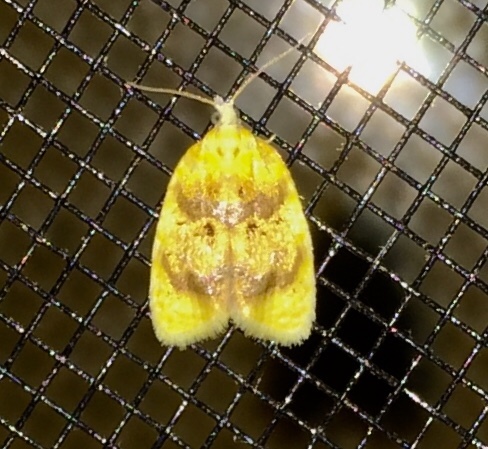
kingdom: Animalia
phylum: Arthropoda
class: Insecta
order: Lepidoptera
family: Tortricidae
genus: Acleris
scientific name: Acleris semipurpurana
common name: Oak leaftier moth
